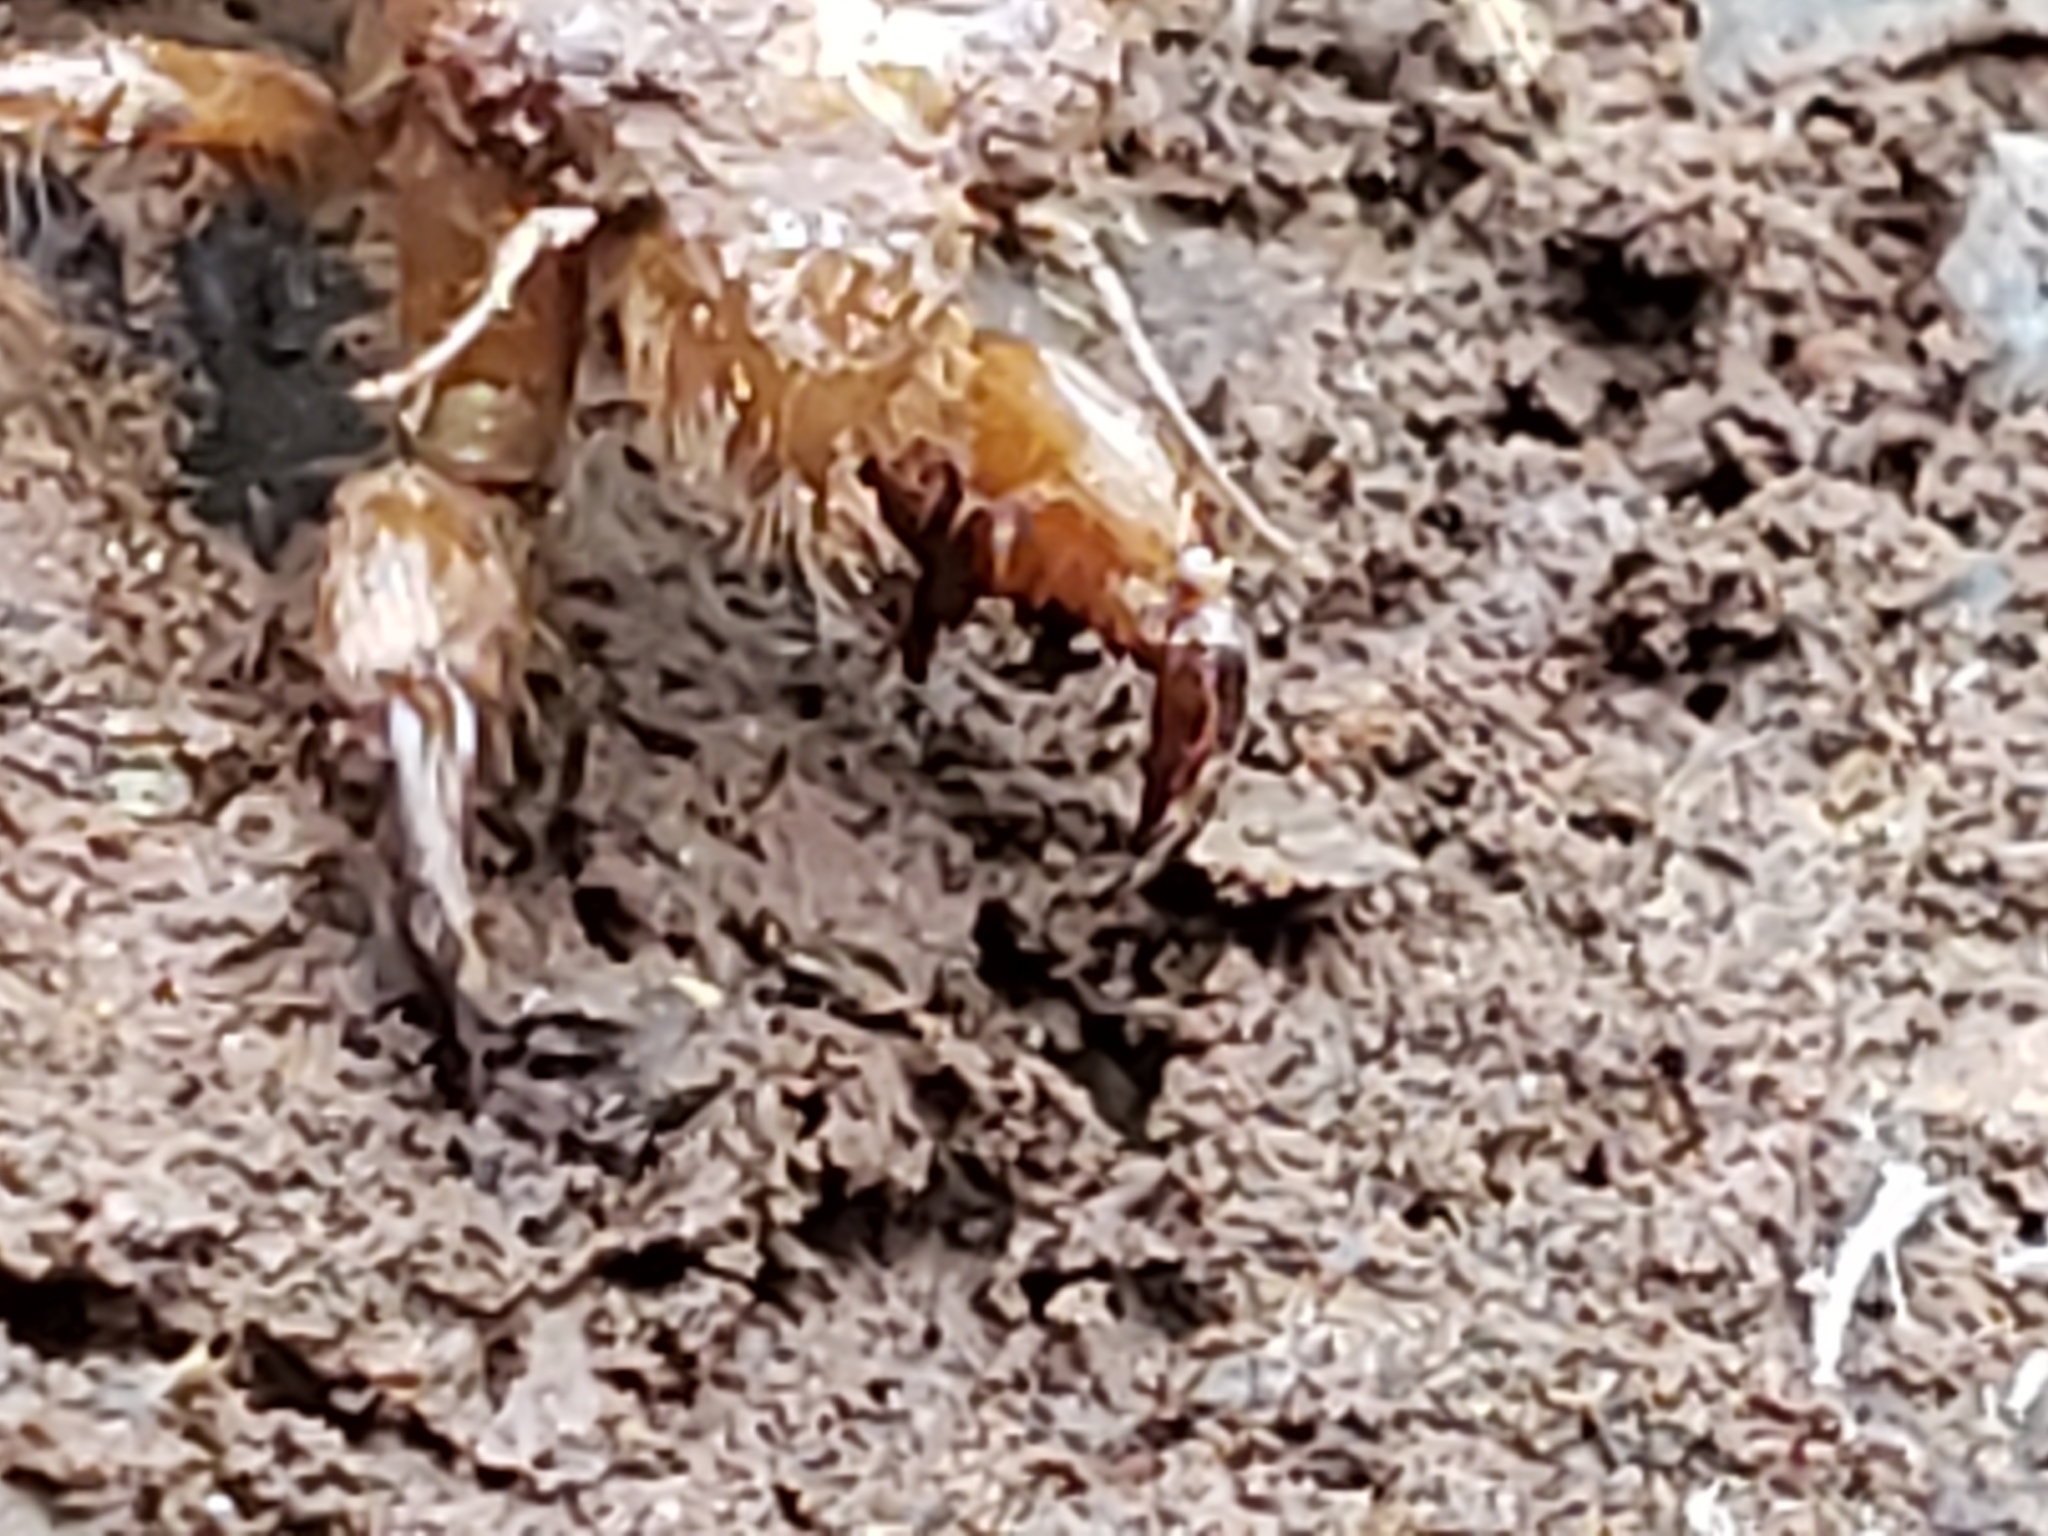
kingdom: Animalia
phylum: Arthropoda
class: Insecta
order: Hemiptera
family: Cicadidae
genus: Magicicada
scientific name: Magicicada
